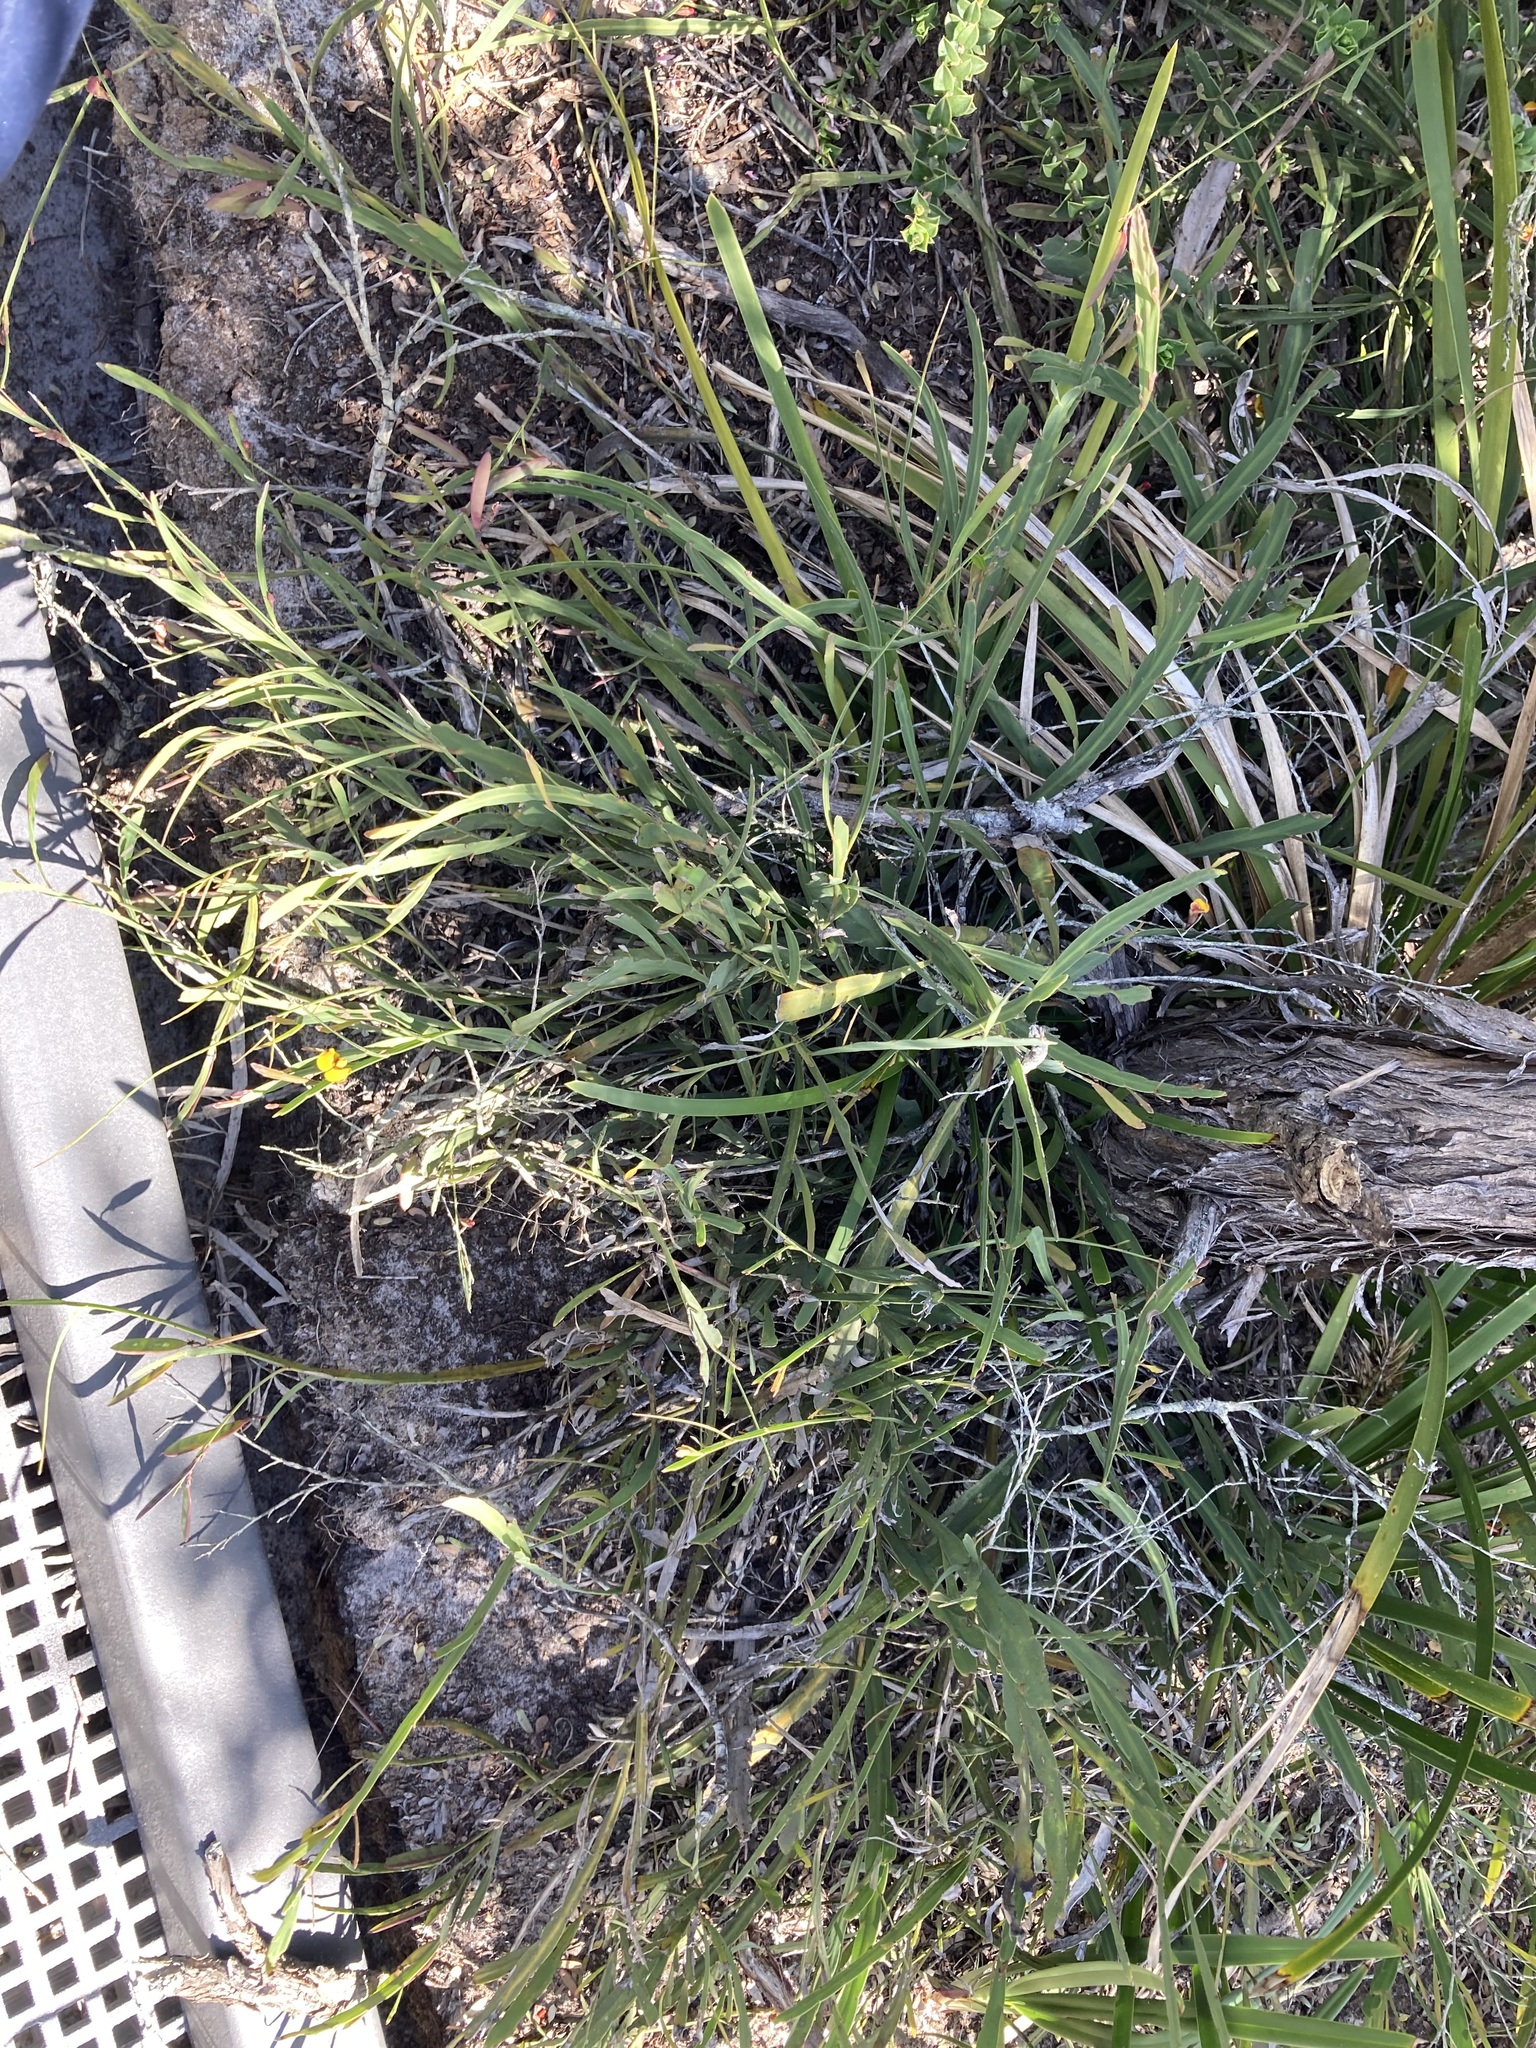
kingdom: Plantae
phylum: Tracheophyta
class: Magnoliopsida
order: Fabales
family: Fabaceae
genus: Bossiaea
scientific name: Bossiaea ensata
